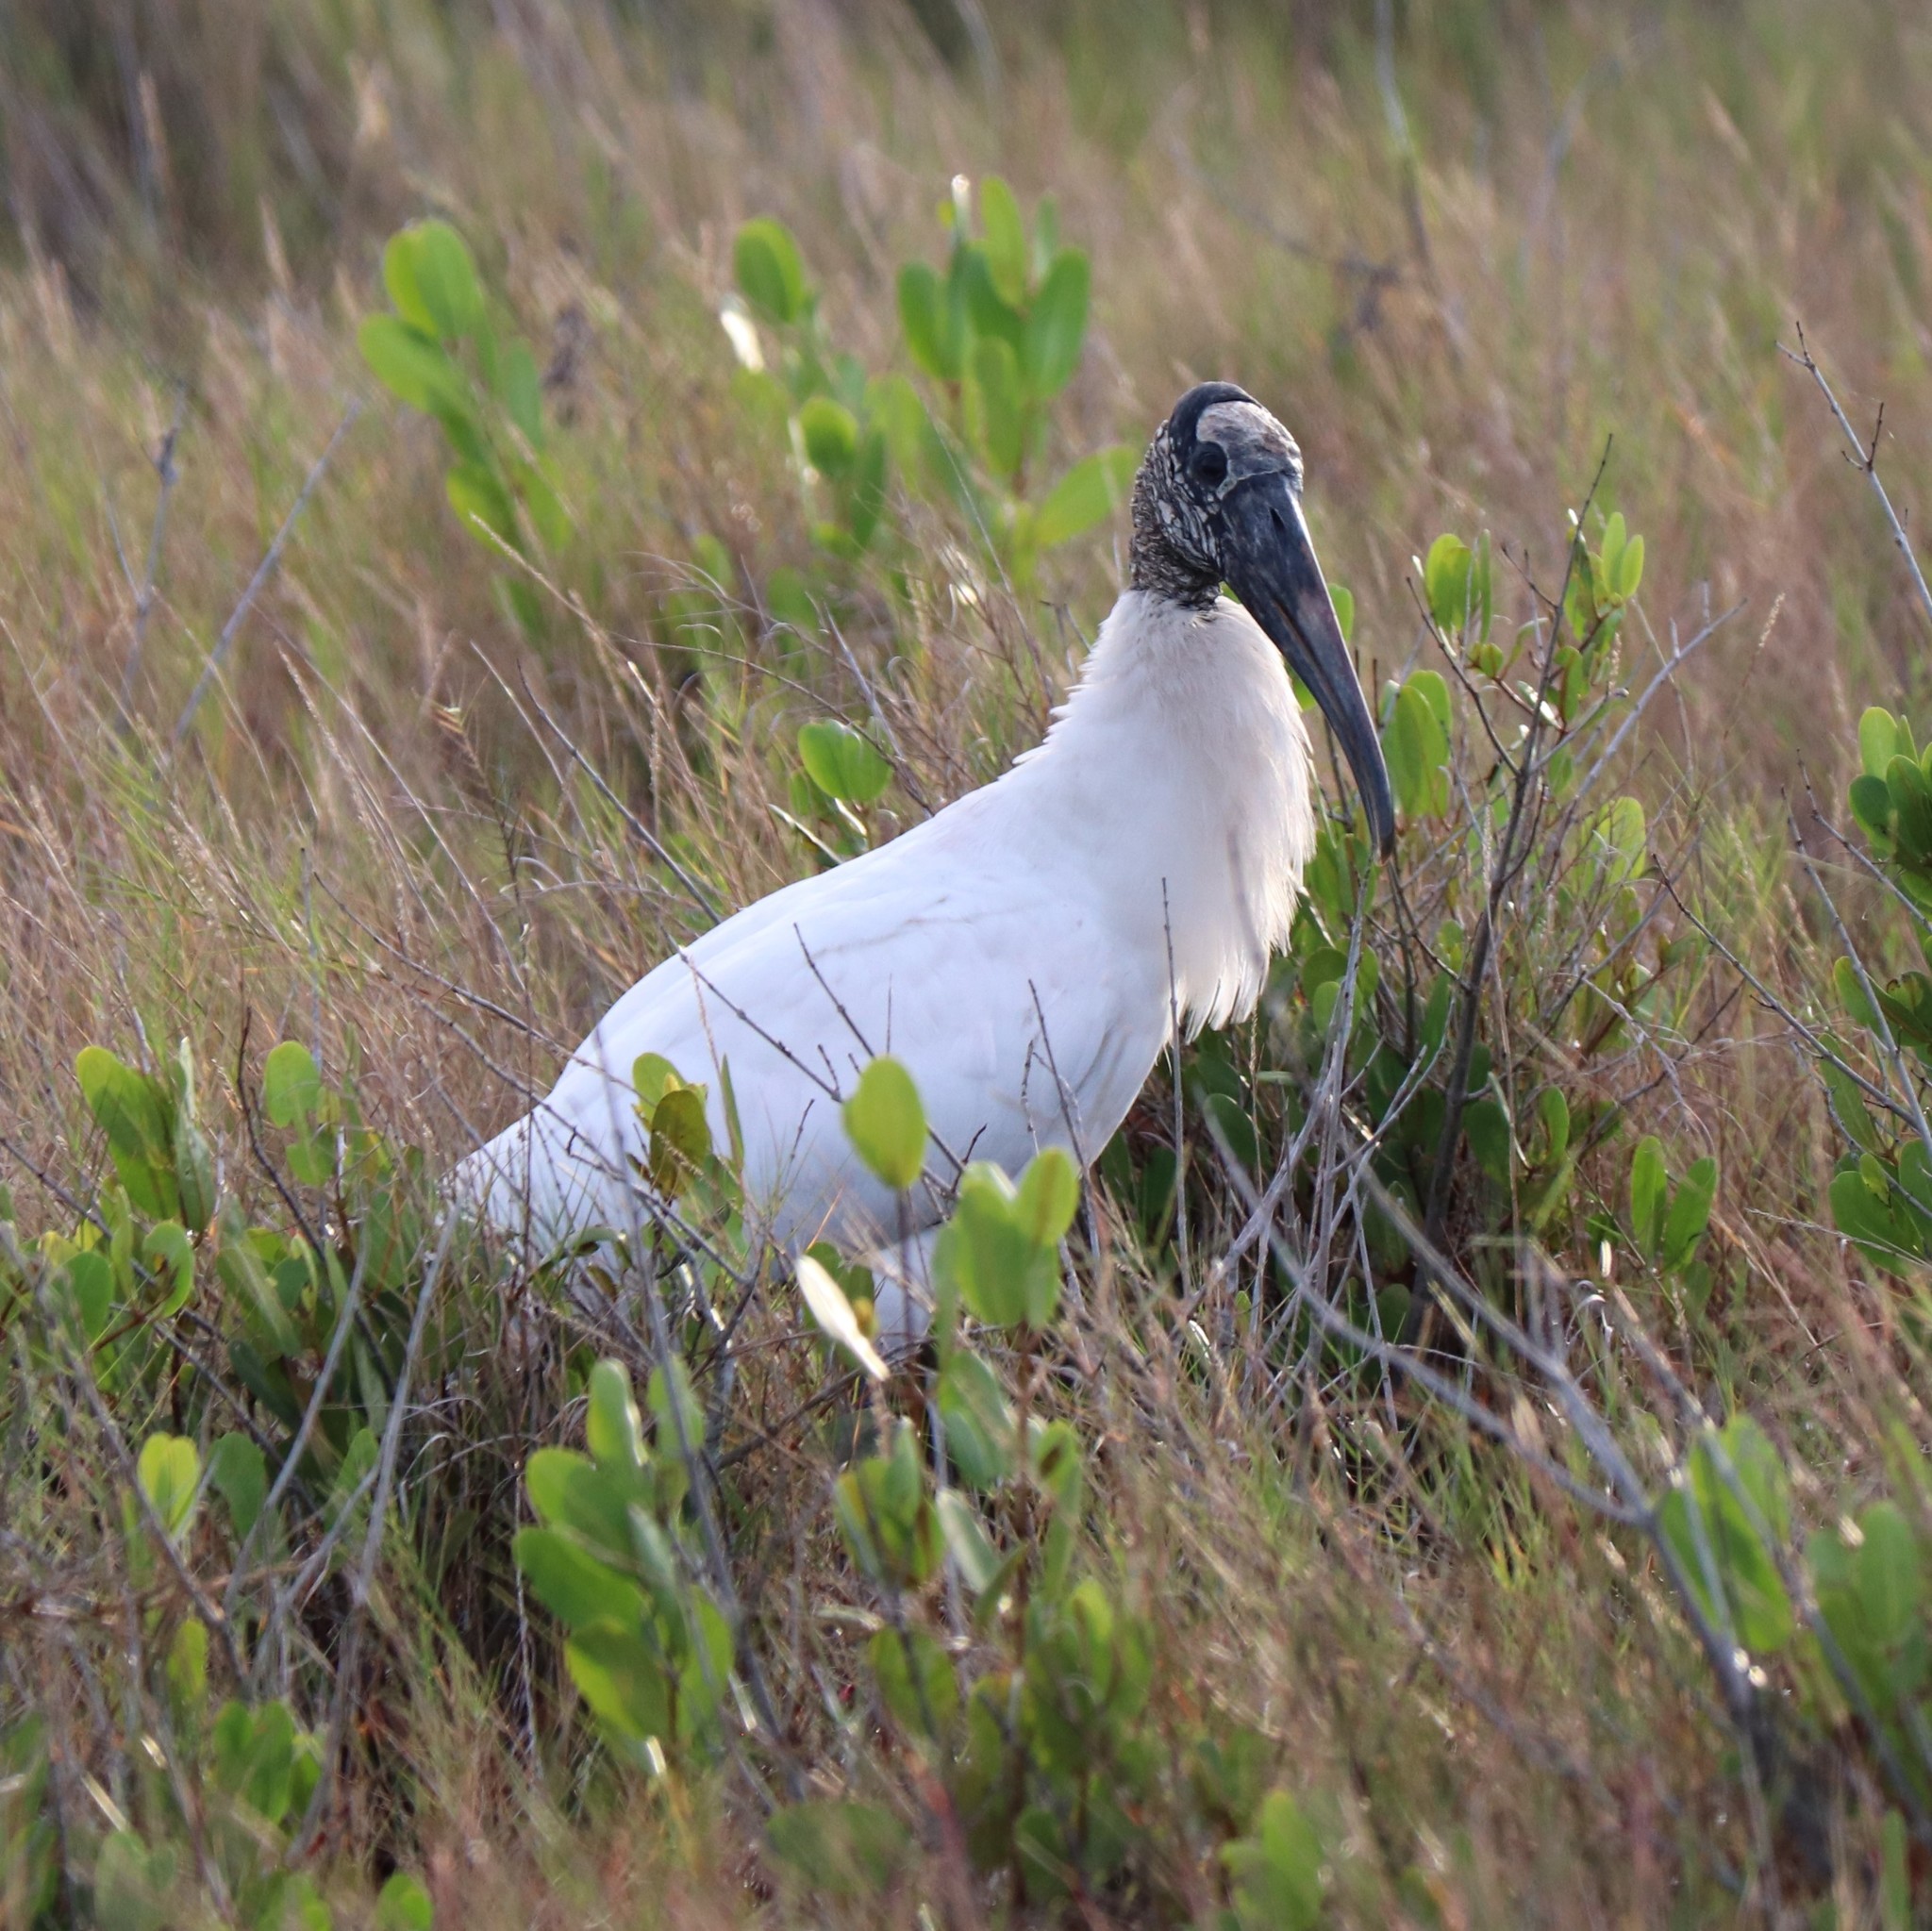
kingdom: Animalia
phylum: Chordata
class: Aves
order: Ciconiiformes
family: Ciconiidae
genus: Mycteria
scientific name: Mycteria americana
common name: Wood stork
